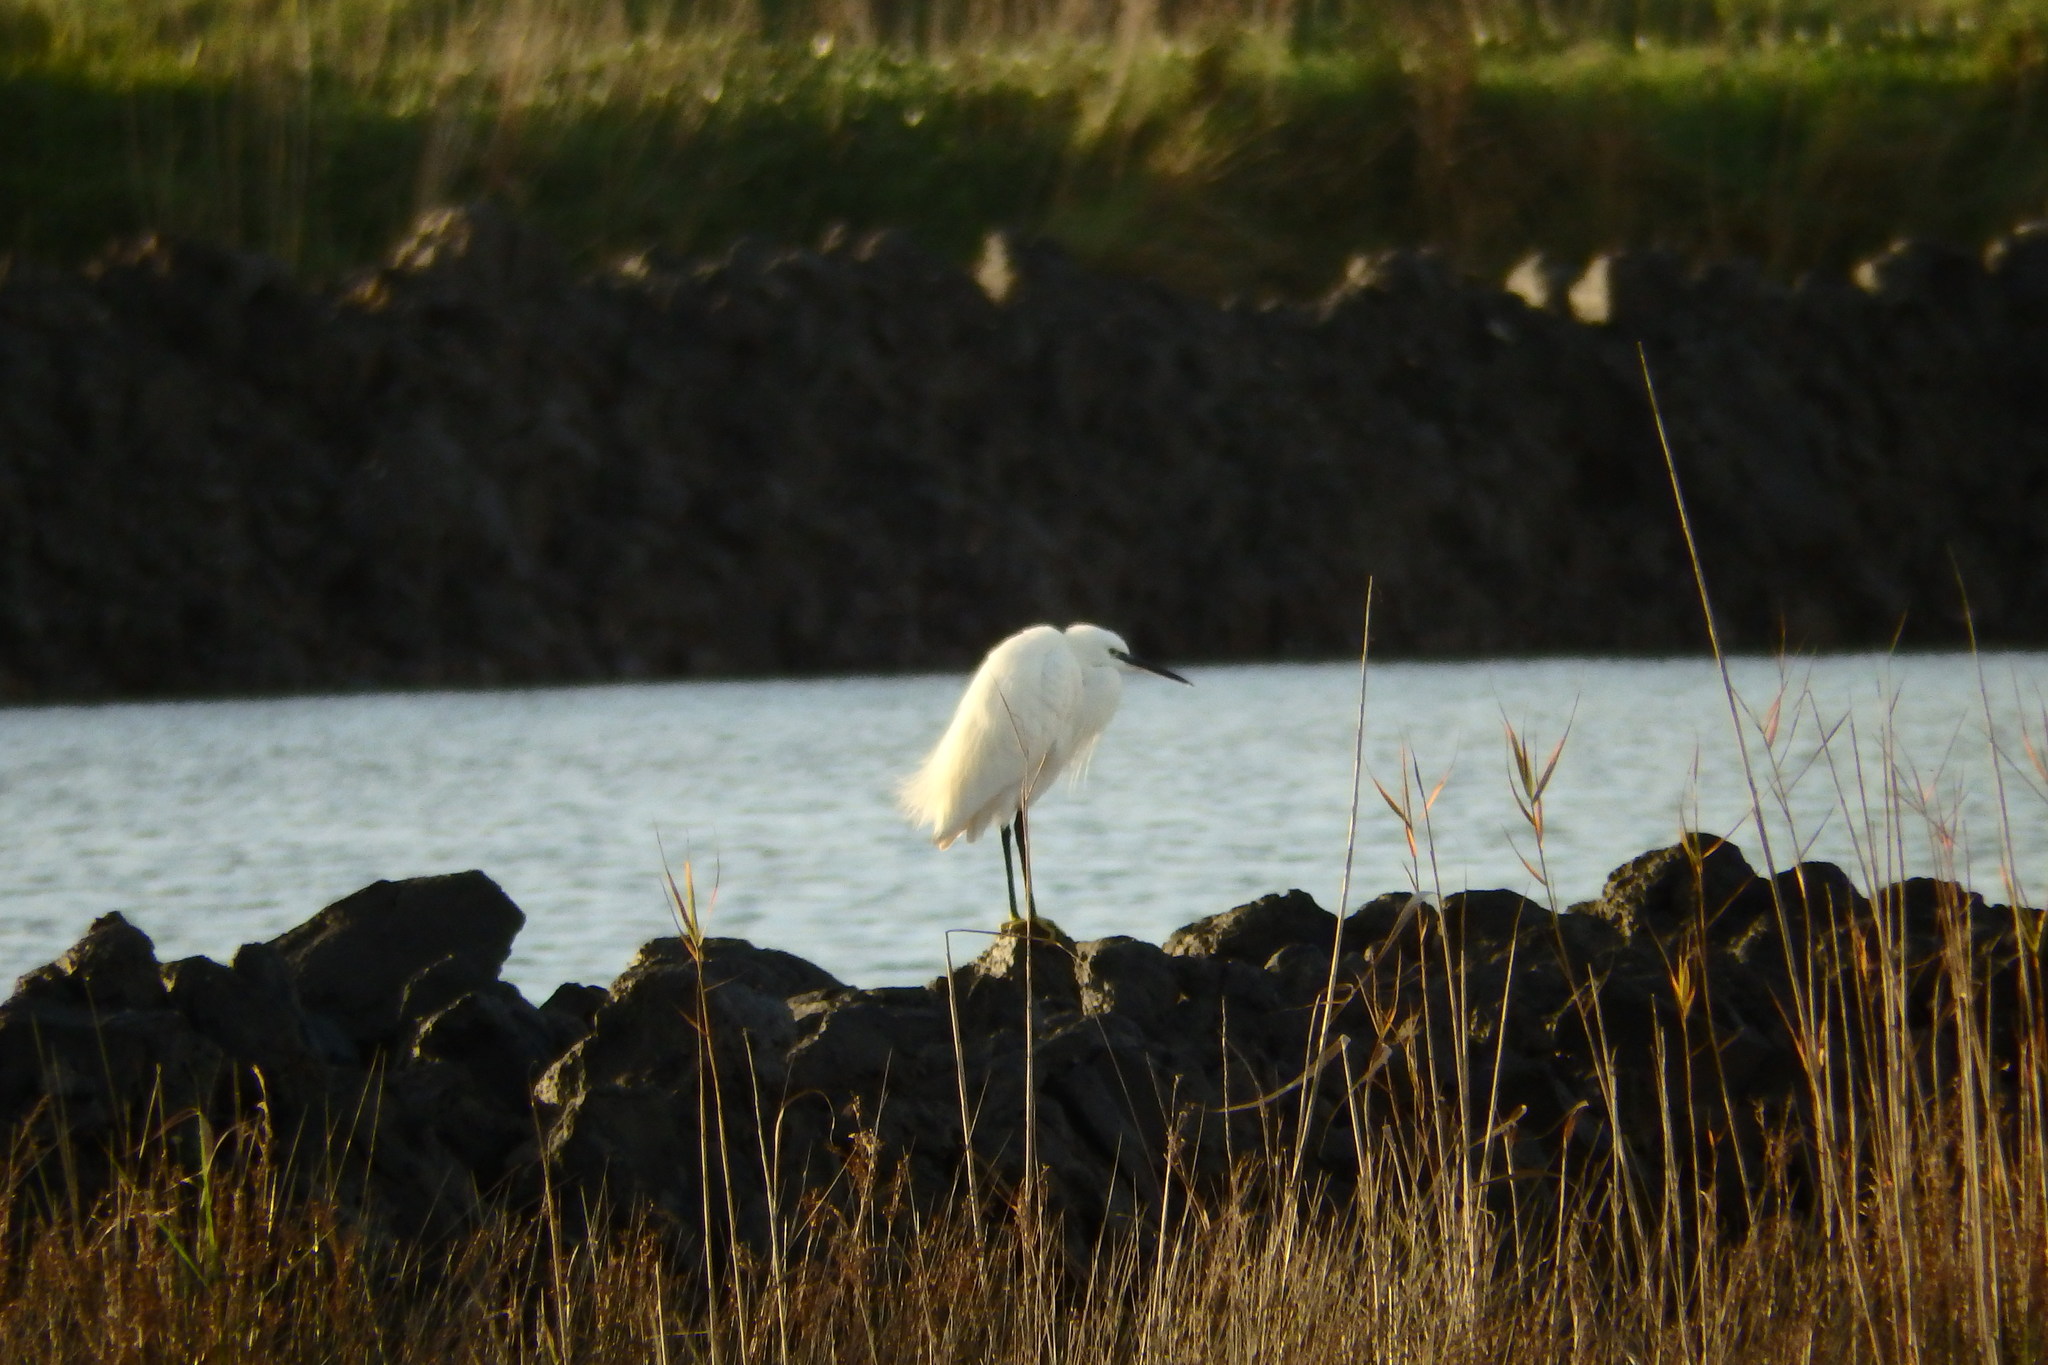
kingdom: Animalia
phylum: Chordata
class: Aves
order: Pelecaniformes
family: Ardeidae
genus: Egretta
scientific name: Egretta garzetta
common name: Little egret
